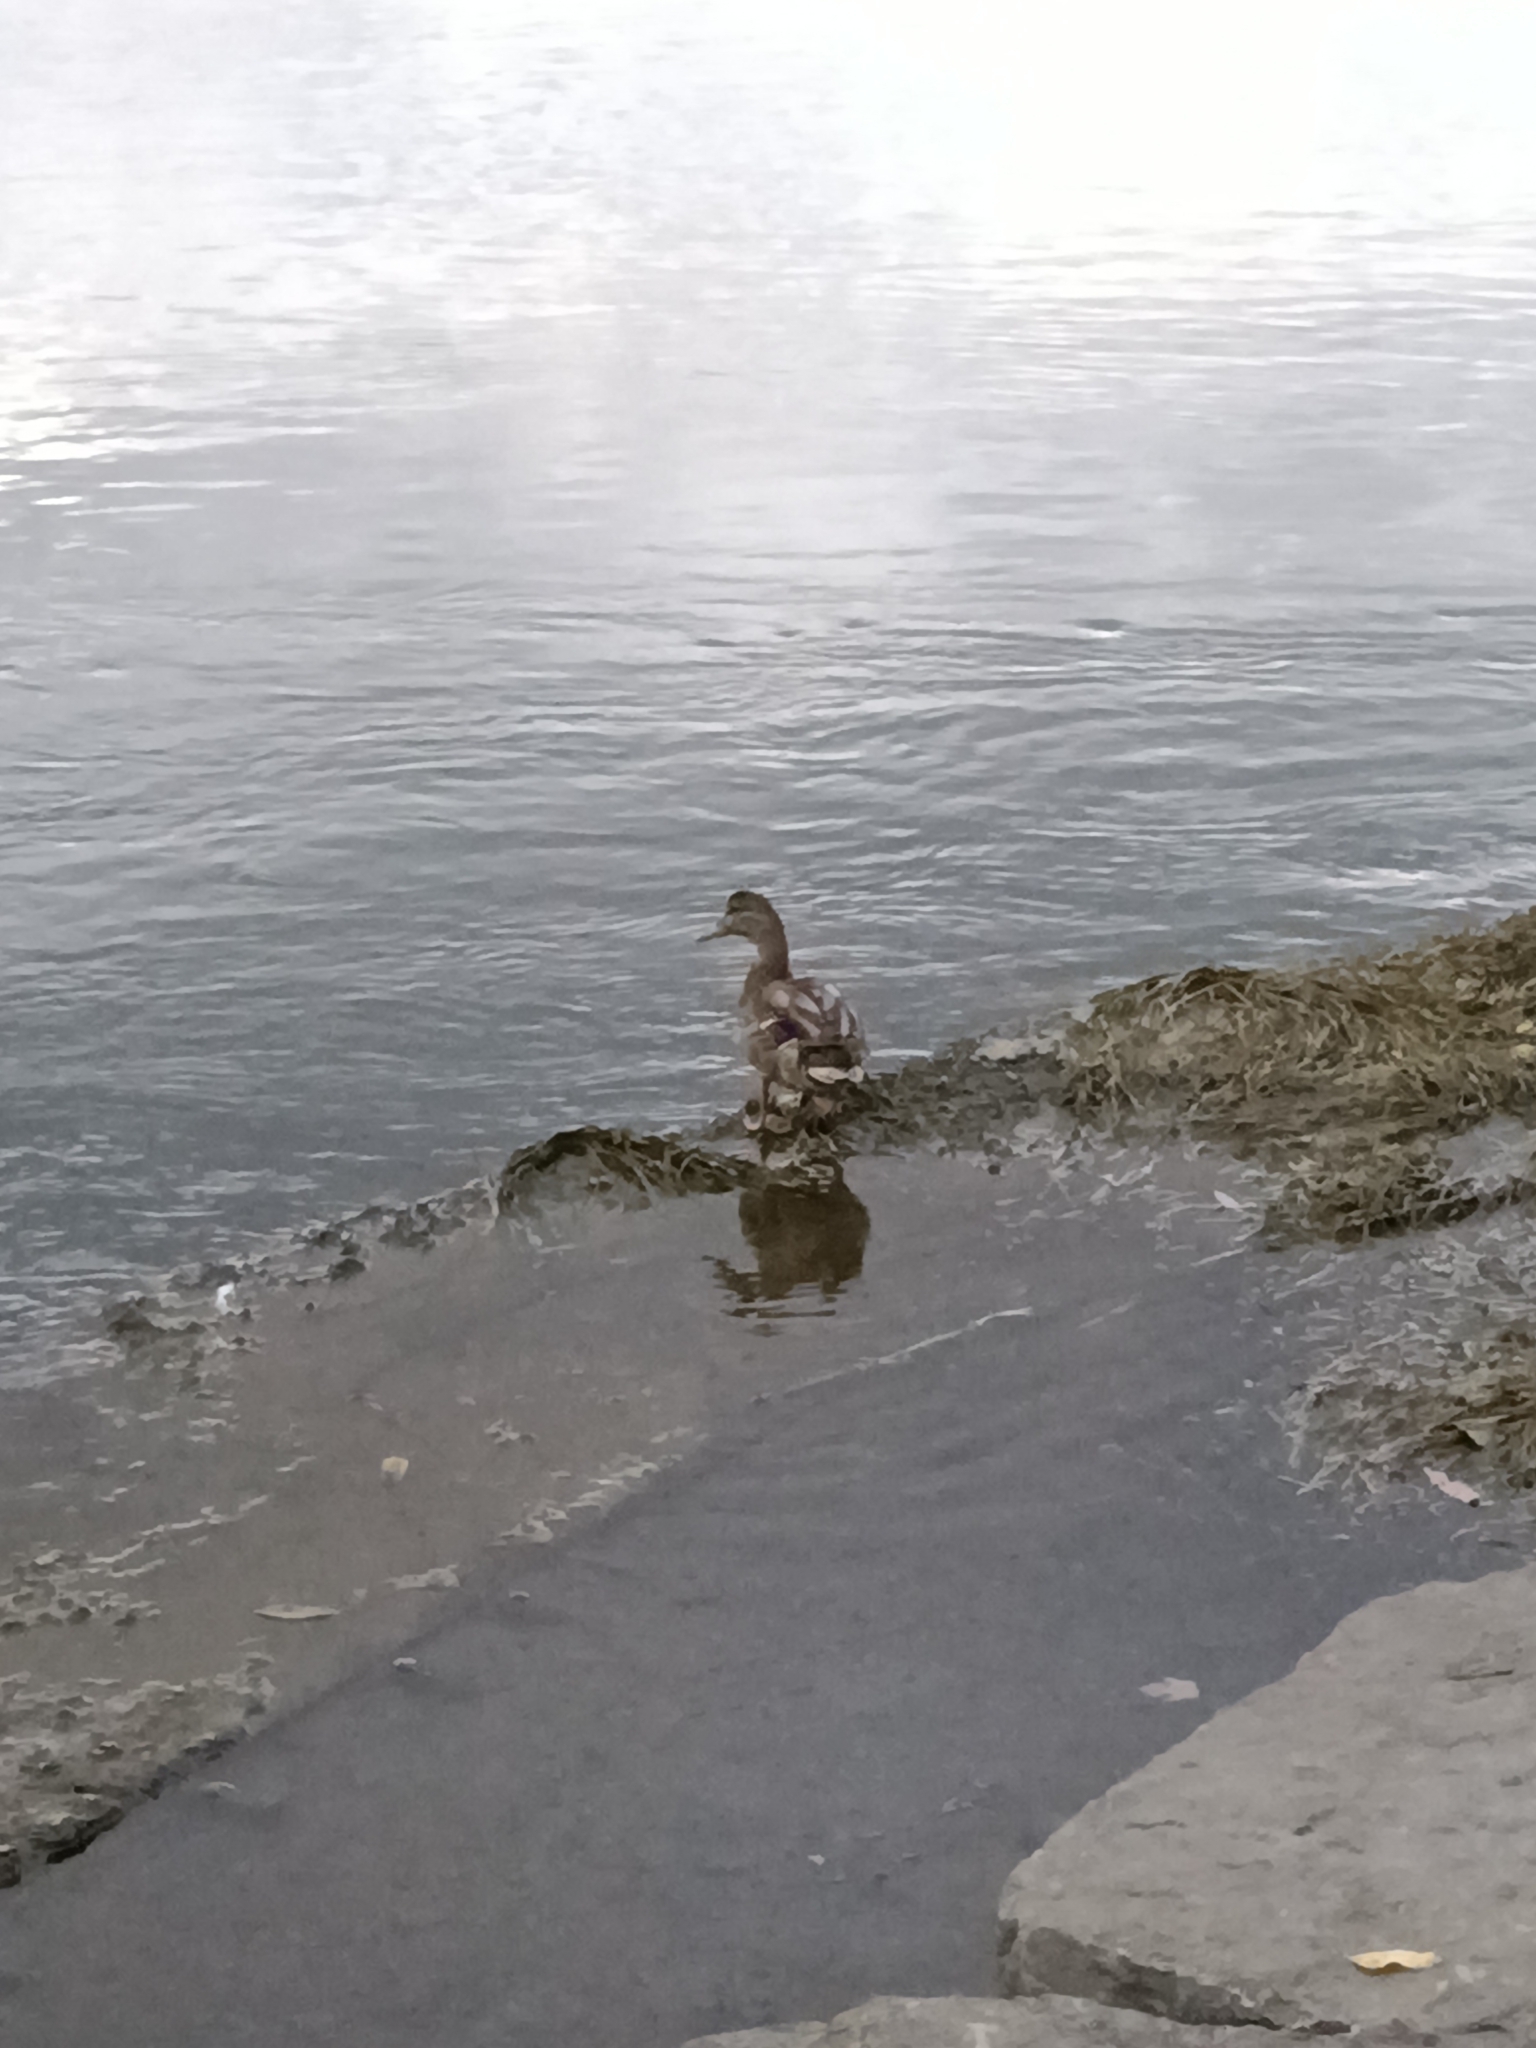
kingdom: Animalia
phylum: Chordata
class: Aves
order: Anseriformes
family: Anatidae
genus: Anas
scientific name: Anas platyrhynchos
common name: Mallard
